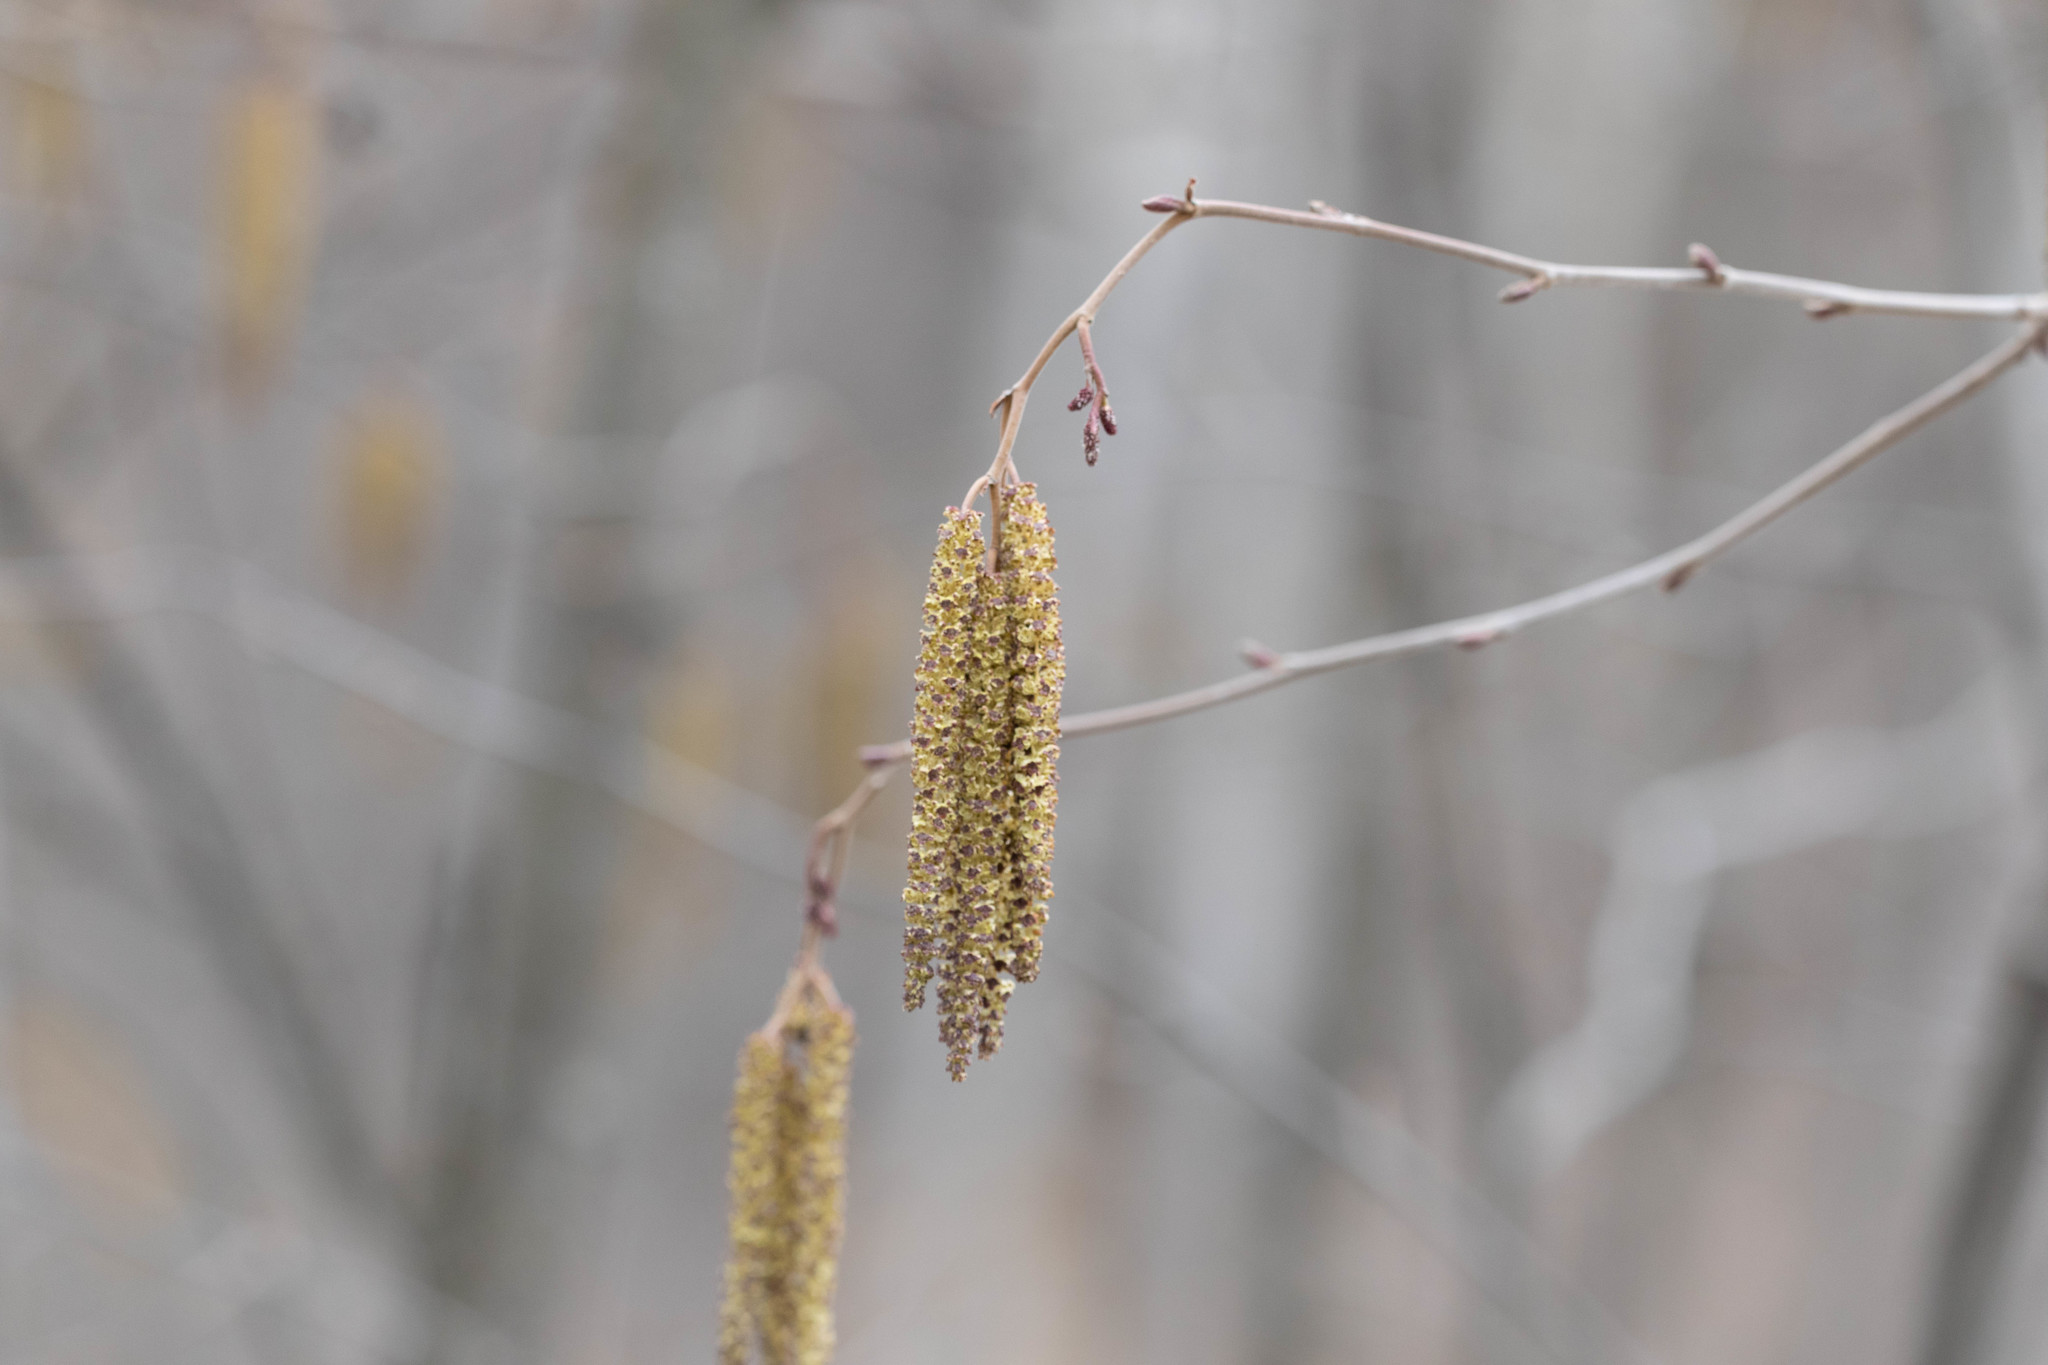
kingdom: Plantae
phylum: Tracheophyta
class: Magnoliopsida
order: Fagales
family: Betulaceae
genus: Alnus
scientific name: Alnus incana
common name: Grey alder
